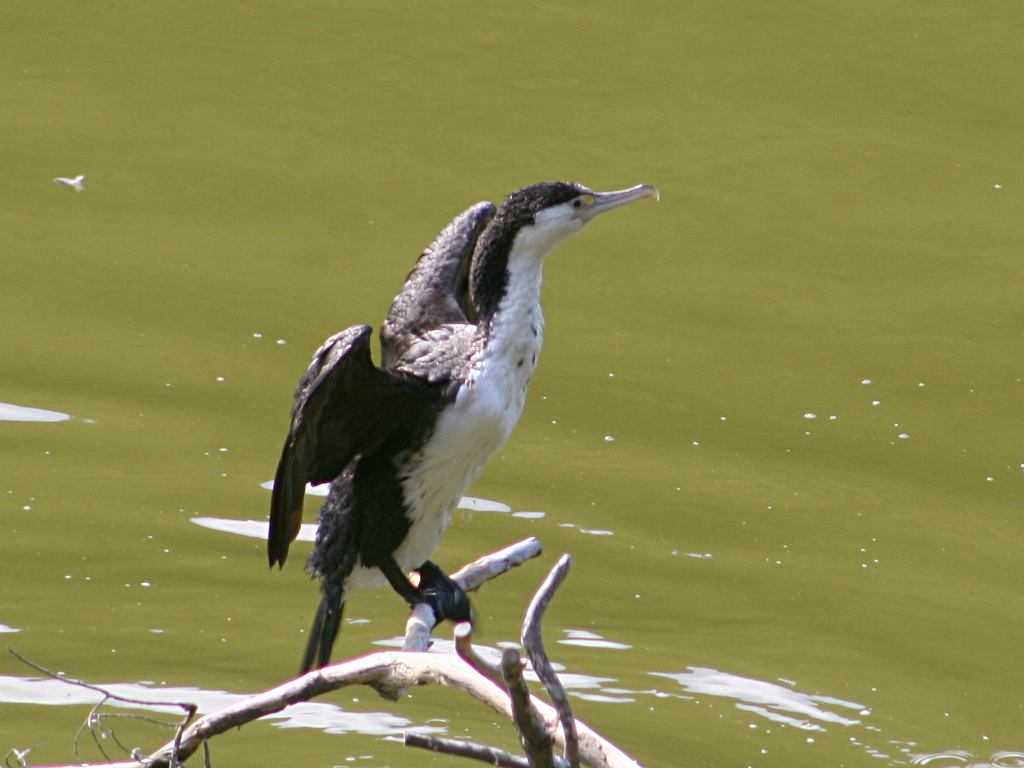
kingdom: Animalia
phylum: Chordata
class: Aves
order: Suliformes
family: Phalacrocoracidae
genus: Phalacrocorax
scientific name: Phalacrocorax varius
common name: Pied cormorant
